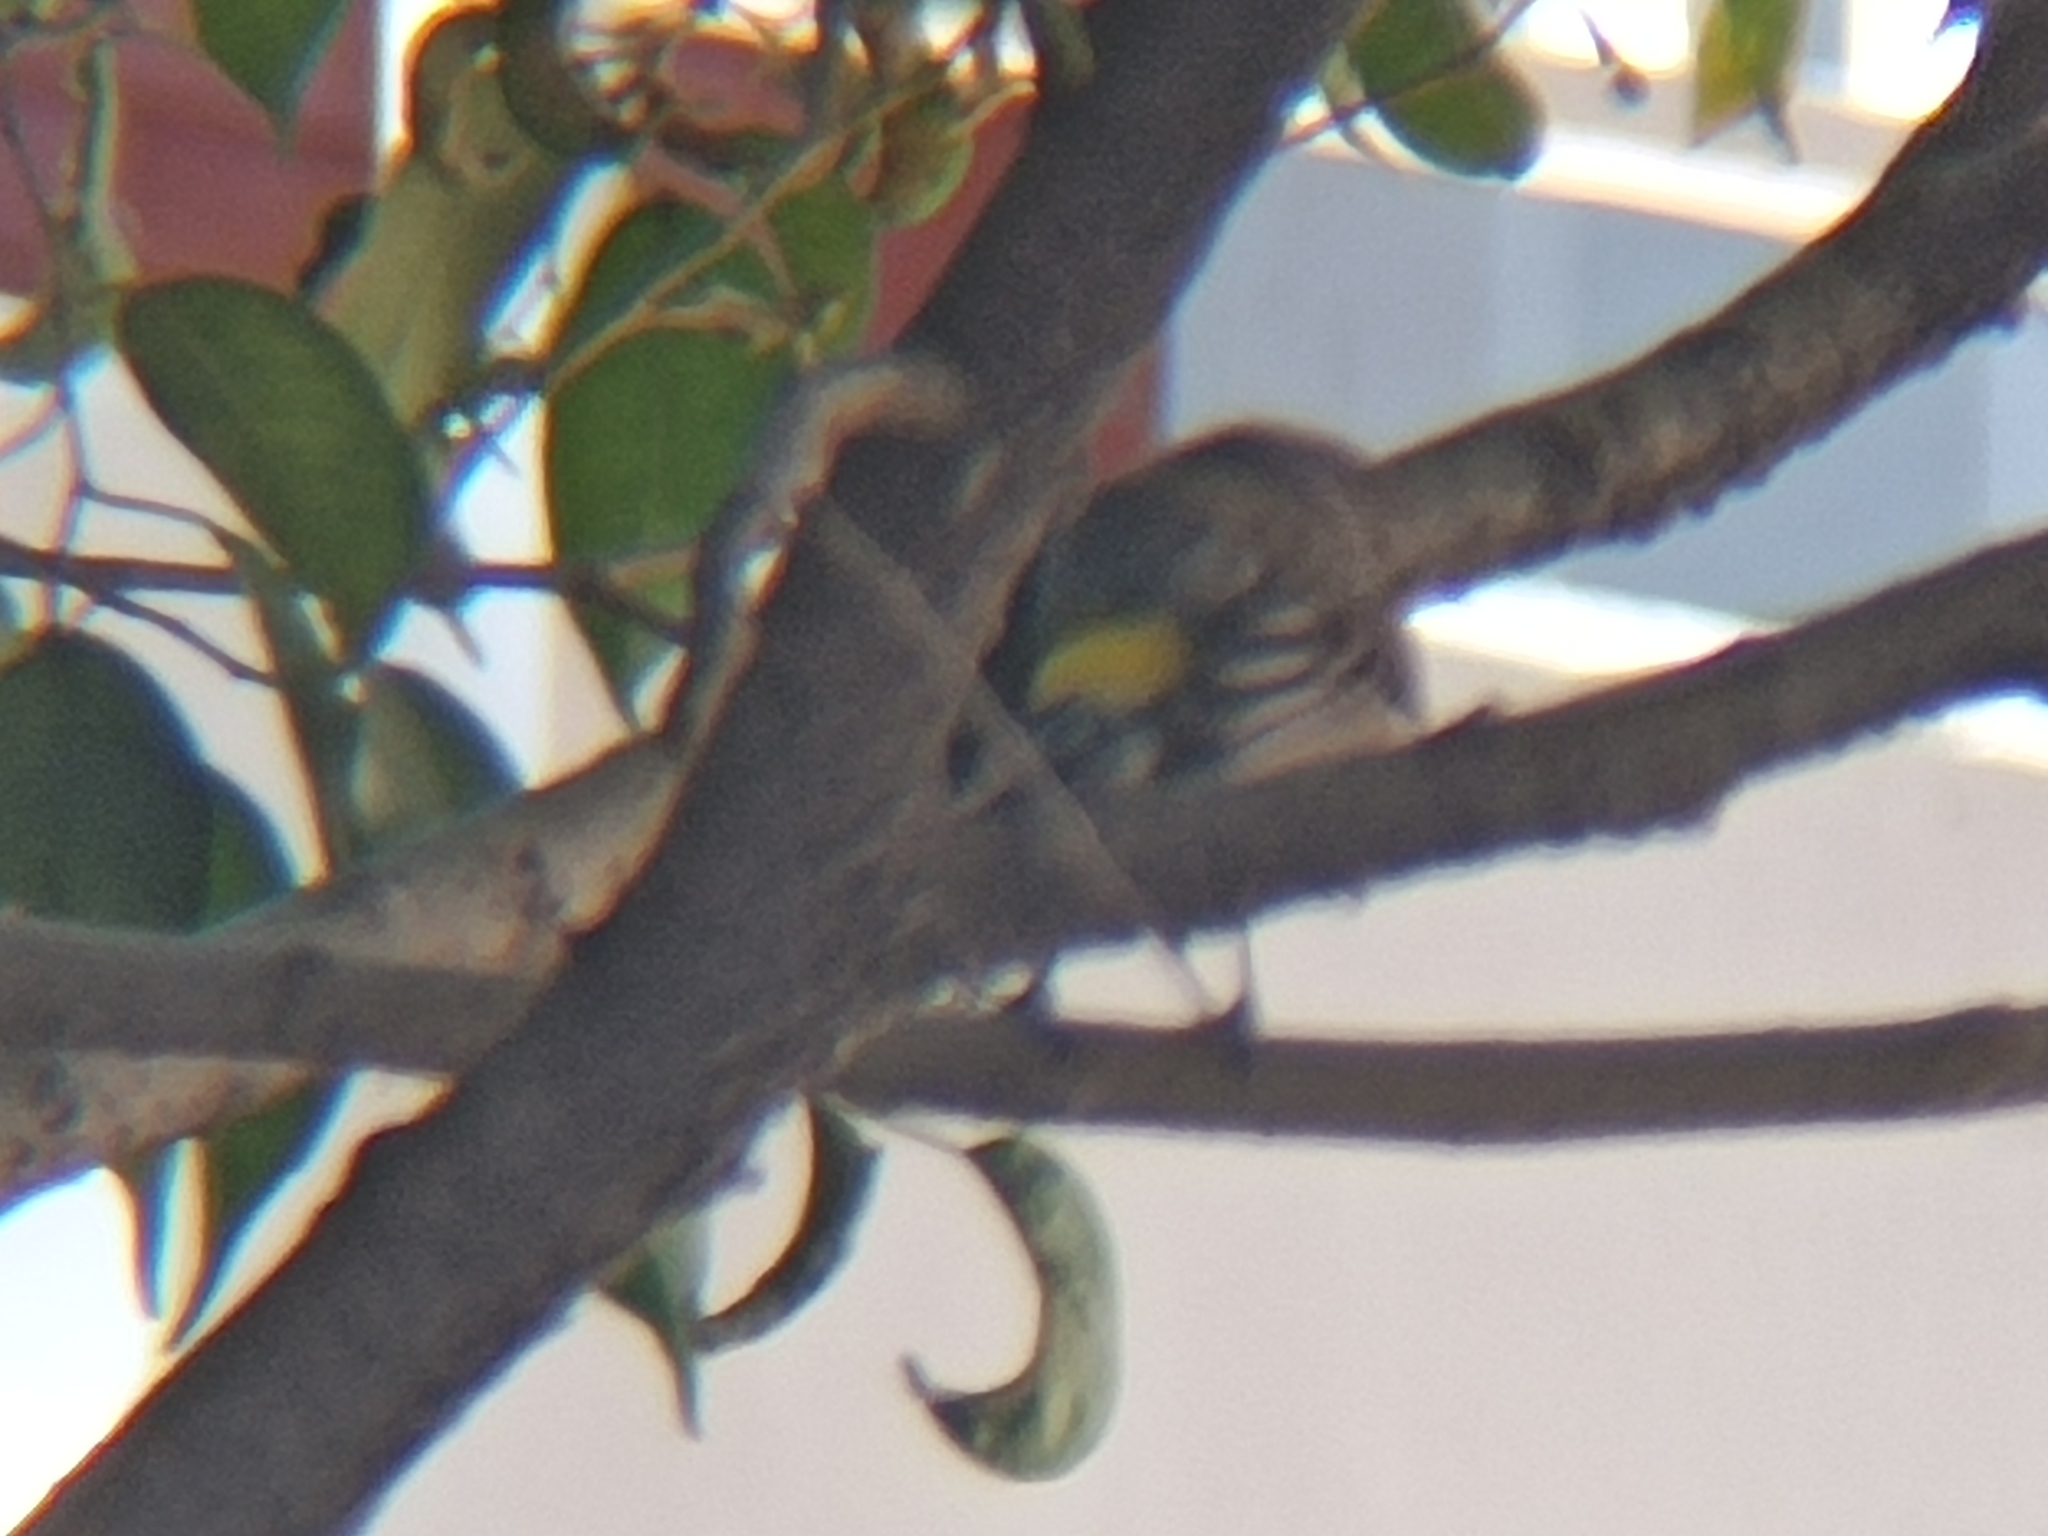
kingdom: Animalia
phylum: Chordata
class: Aves
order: Passeriformes
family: Parulidae
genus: Setophaga
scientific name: Setophaga coronata
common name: Myrtle warbler
